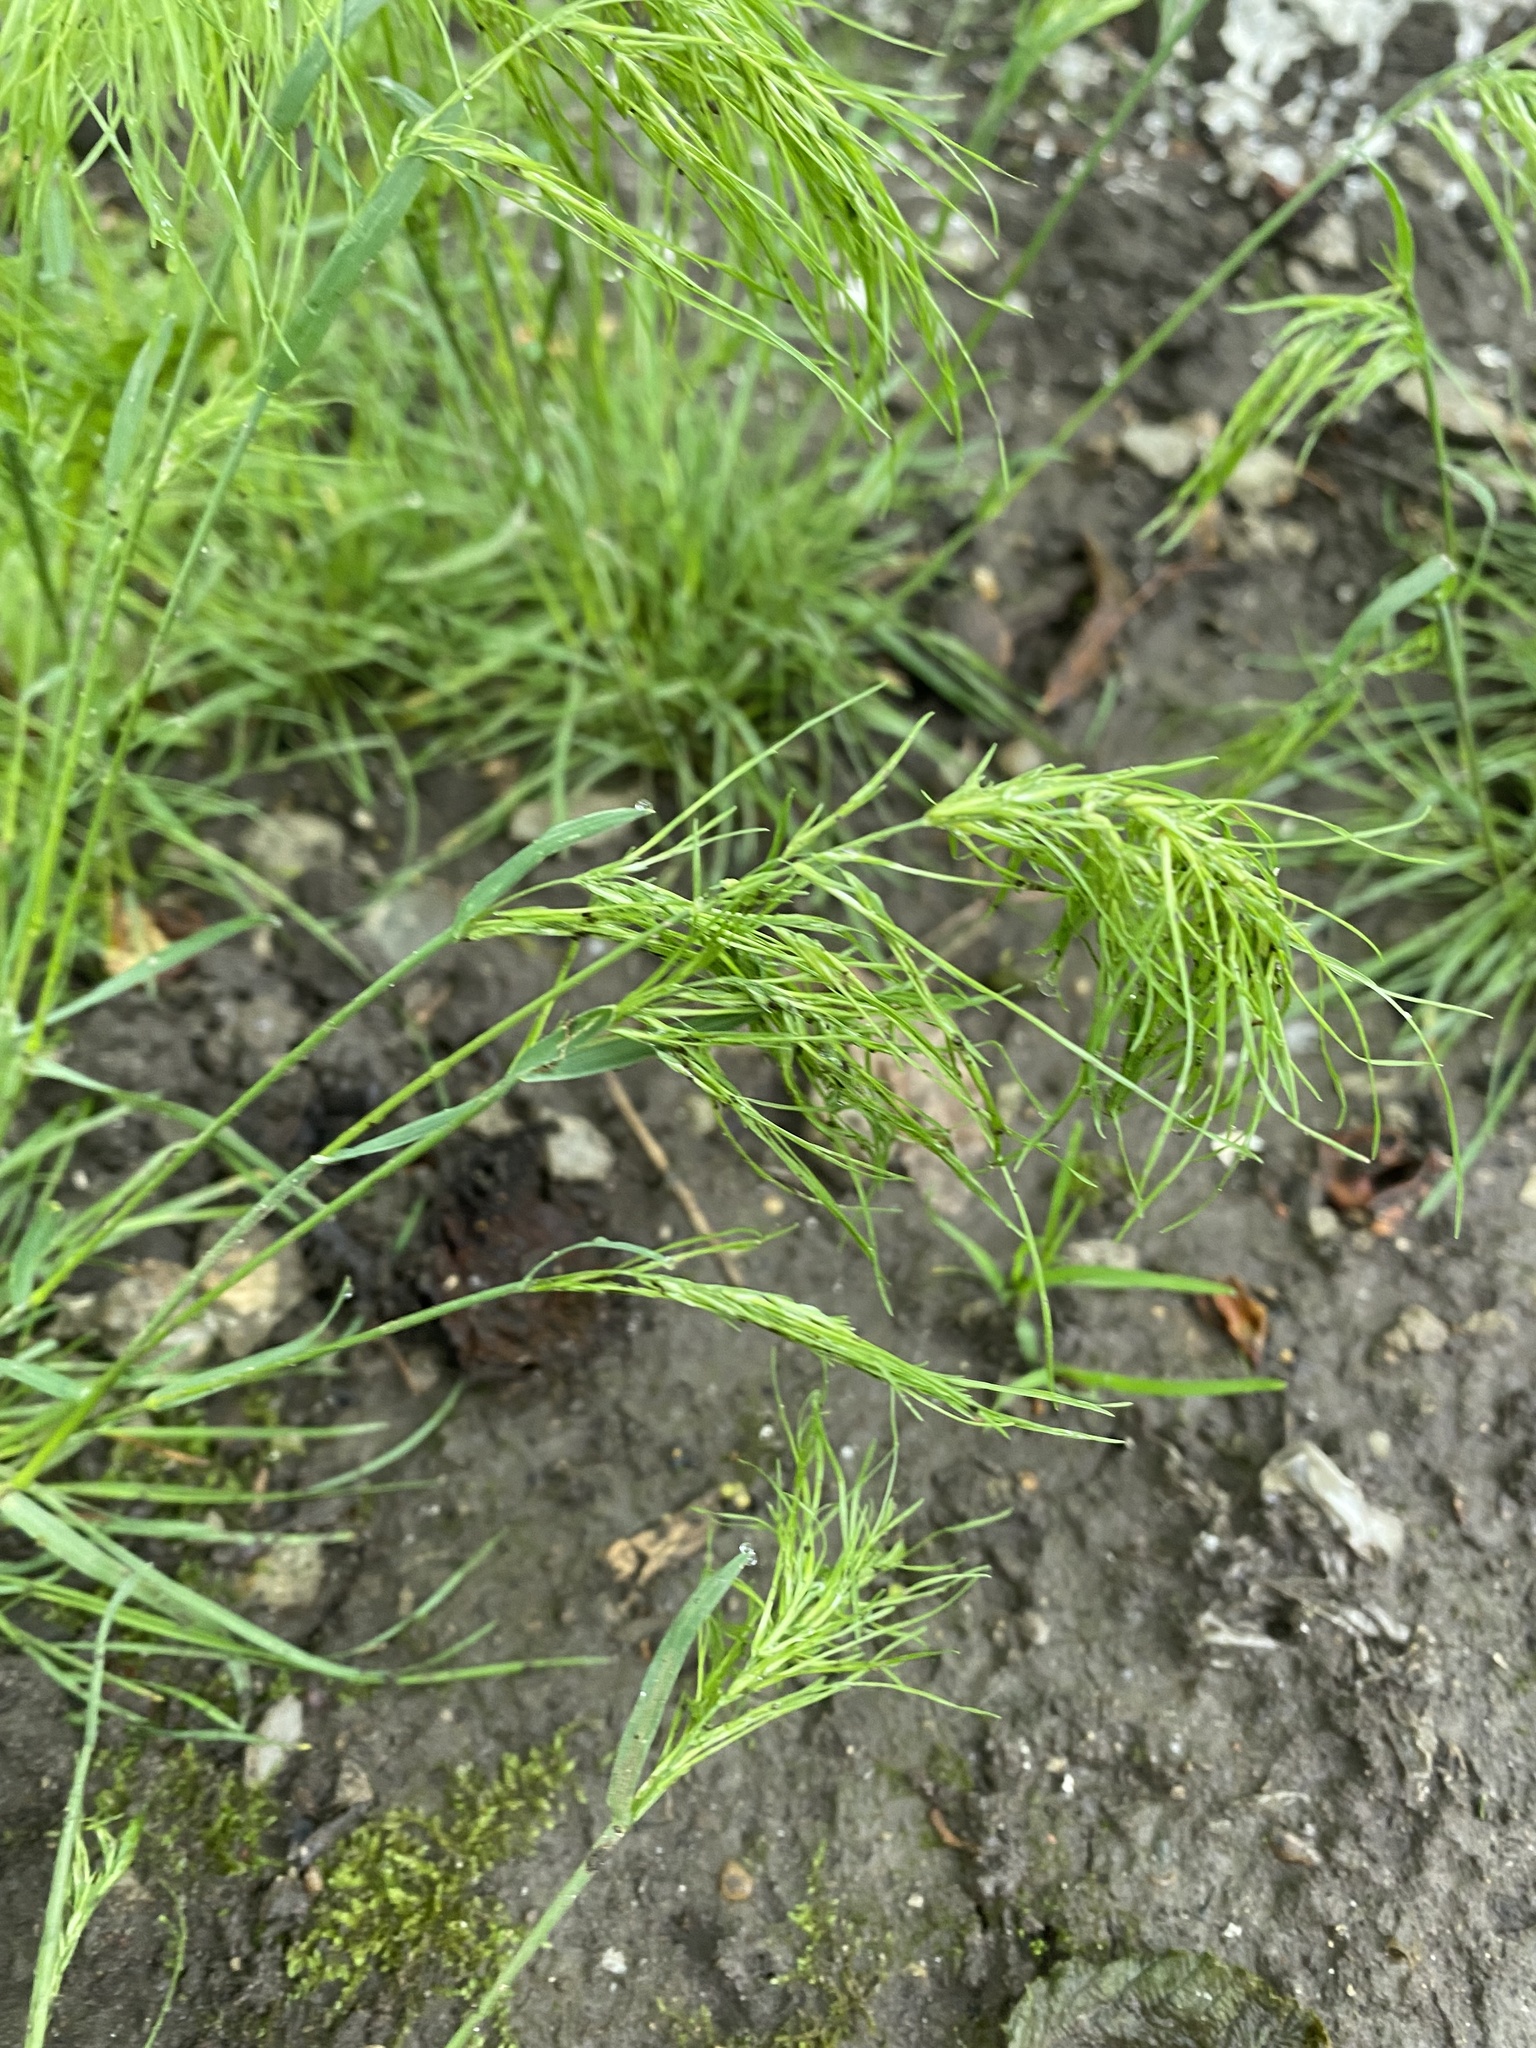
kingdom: Plantae
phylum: Tracheophyta
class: Liliopsida
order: Poales
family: Poaceae
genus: Poa
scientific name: Poa bulbosa
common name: Bulbous bluegrass
